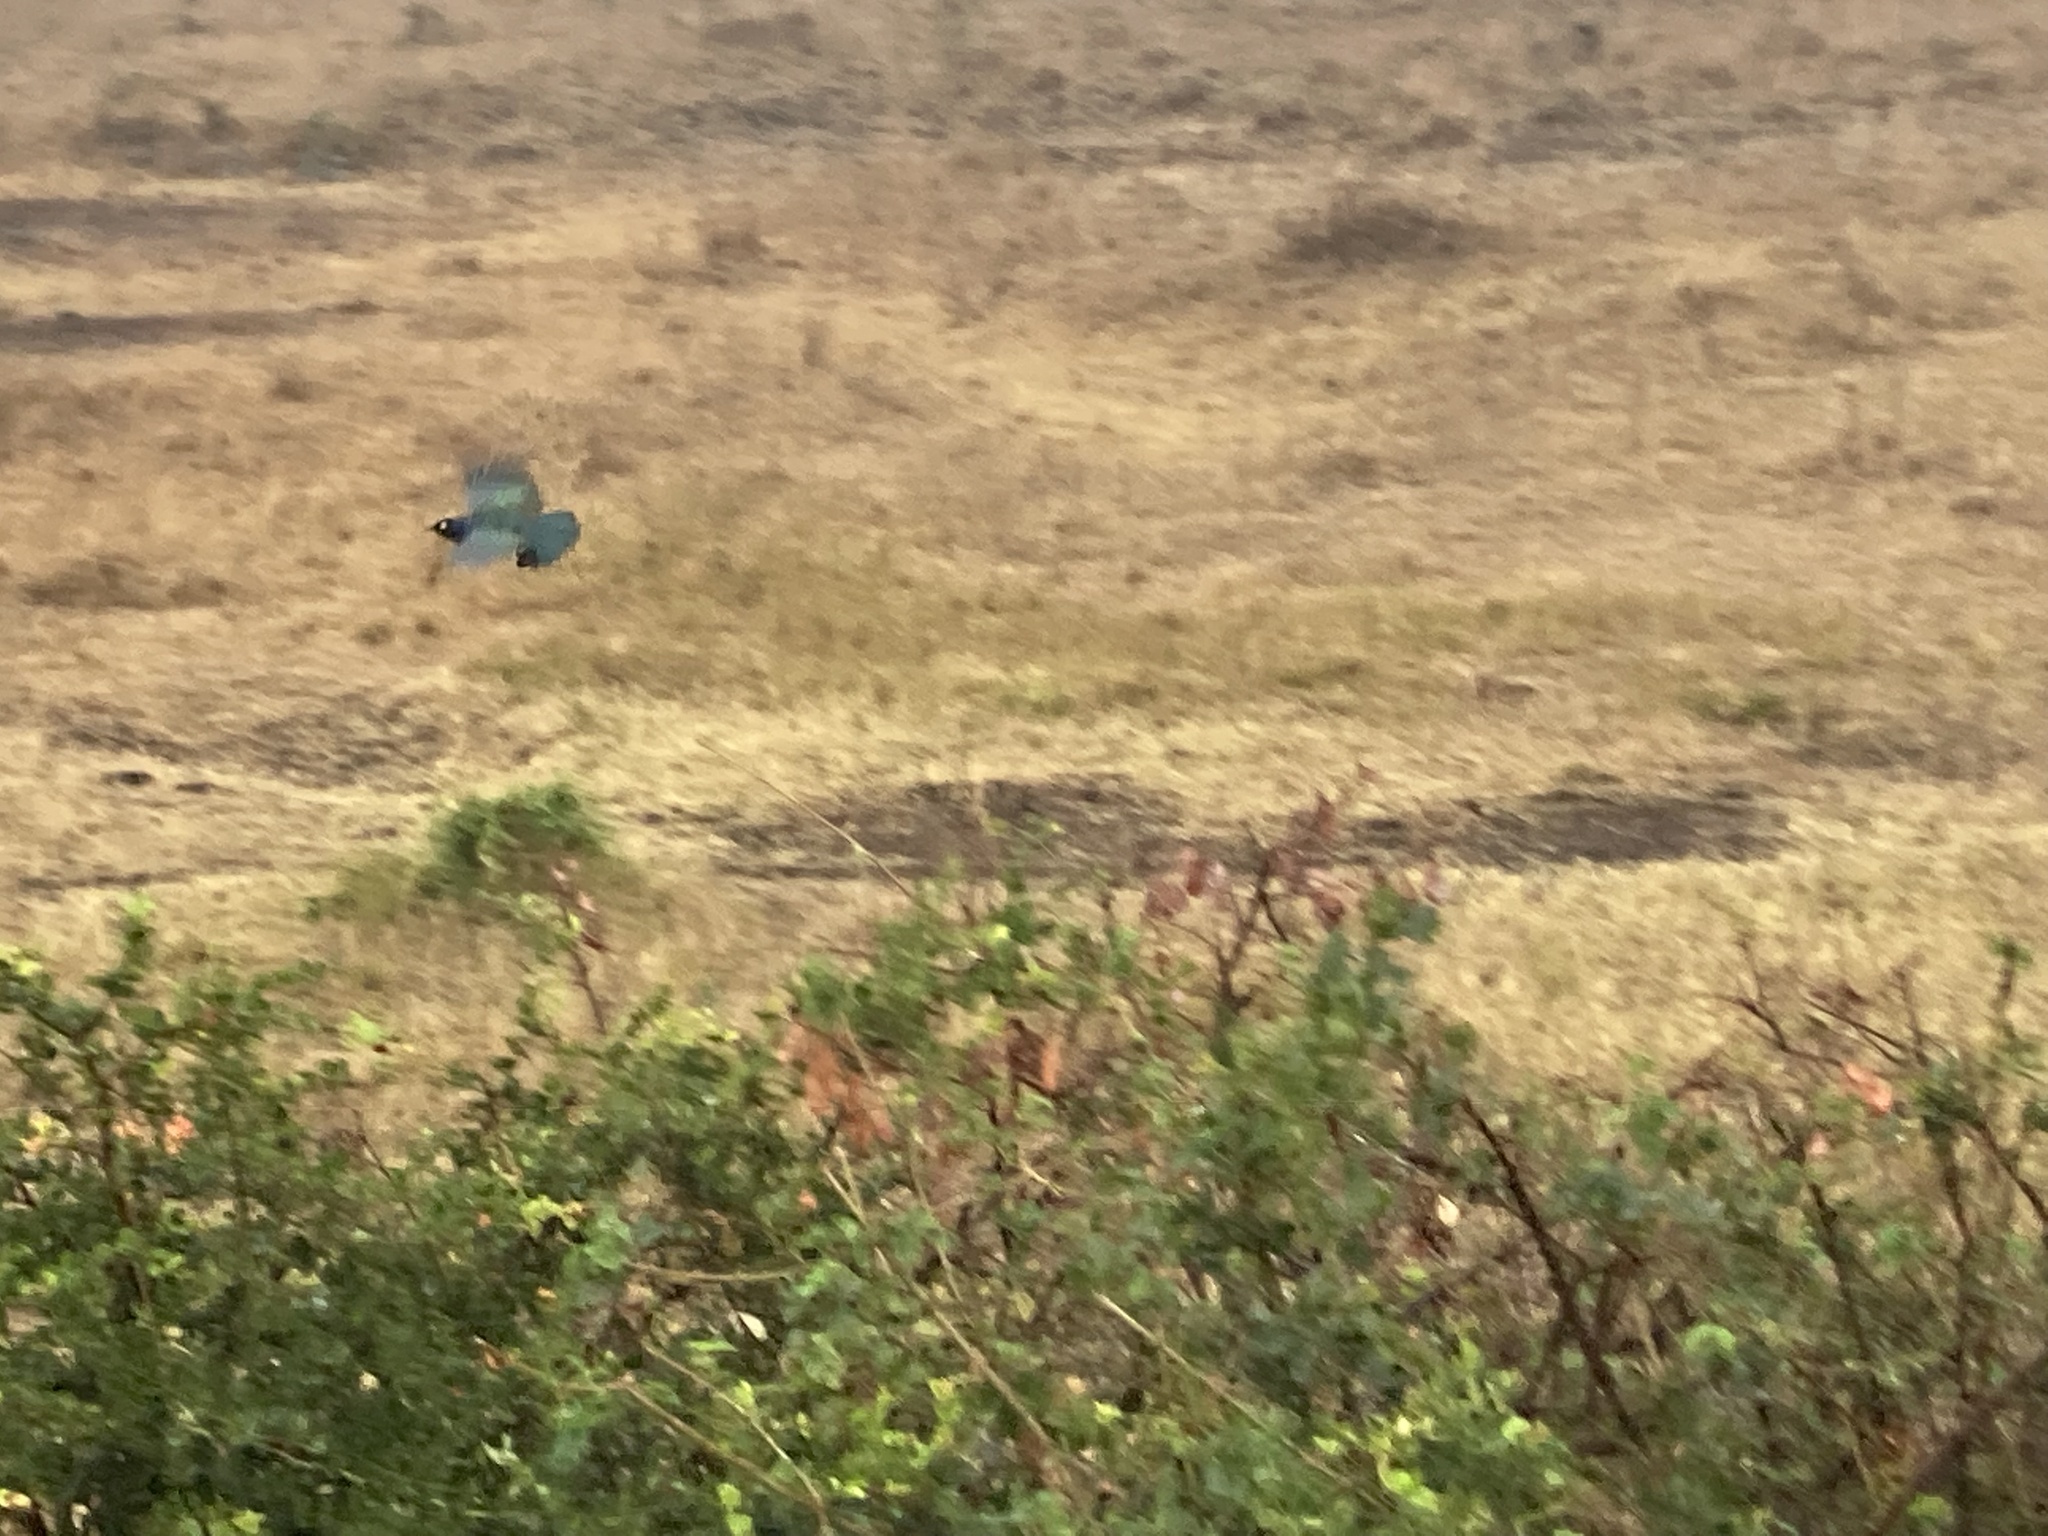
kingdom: Animalia
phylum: Chordata
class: Aves
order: Passeriformes
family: Sturnidae
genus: Lamprotornis
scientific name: Lamprotornis superbus
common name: Superb starling
